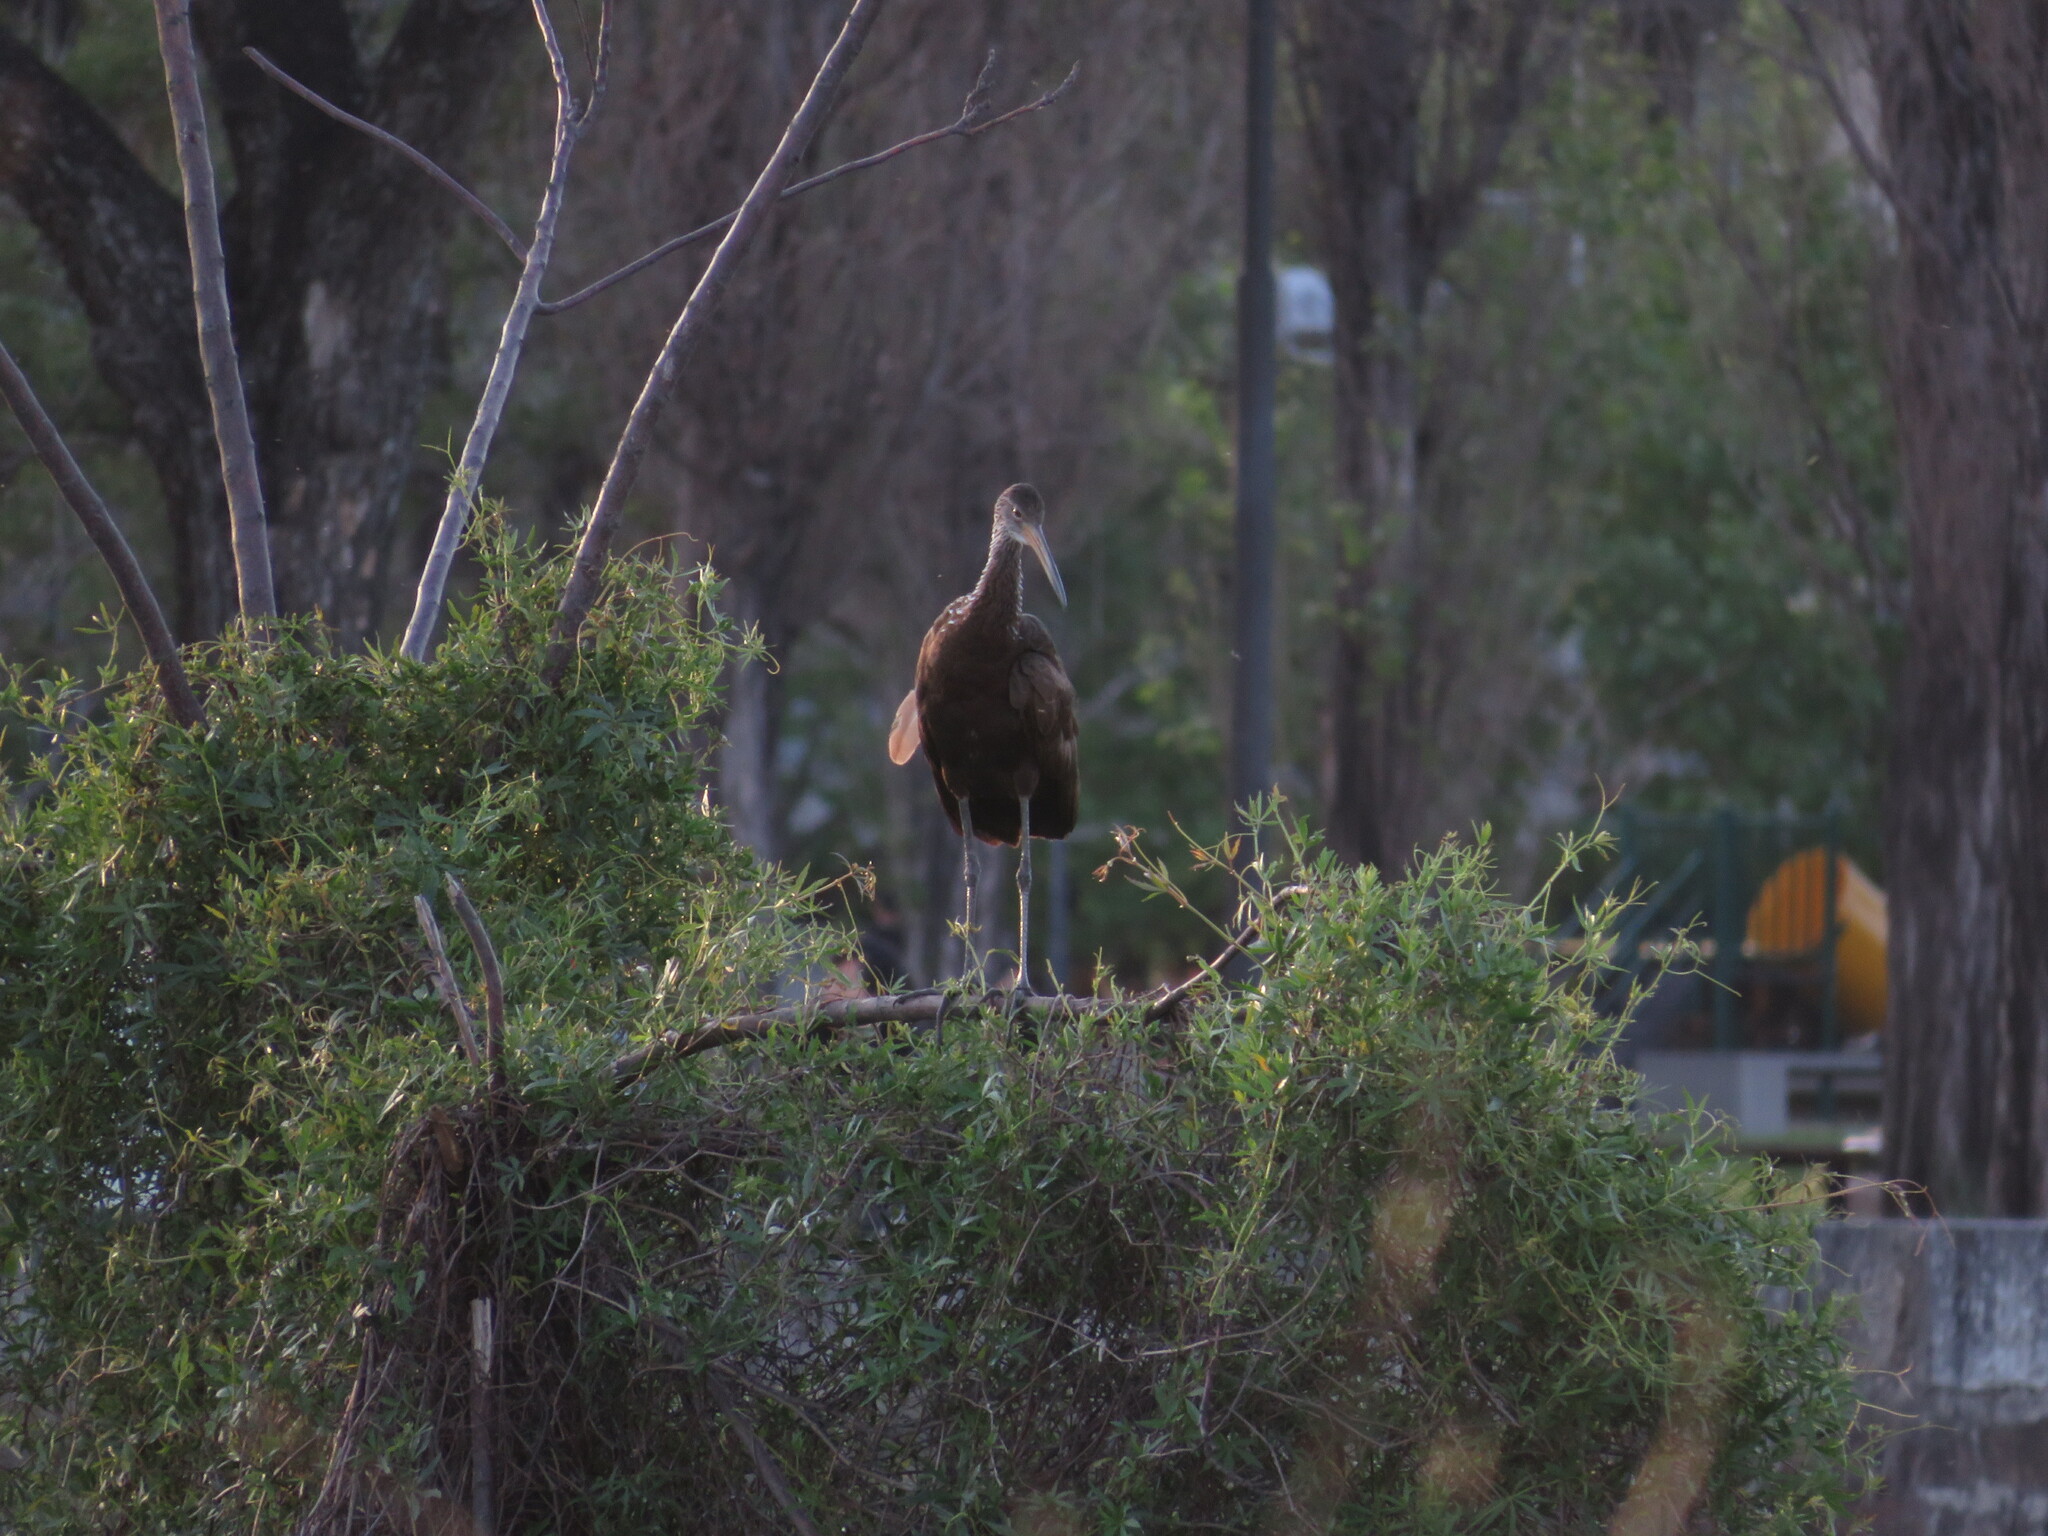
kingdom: Animalia
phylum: Chordata
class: Aves
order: Gruiformes
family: Aramidae
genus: Aramus
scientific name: Aramus guarauna
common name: Limpkin
